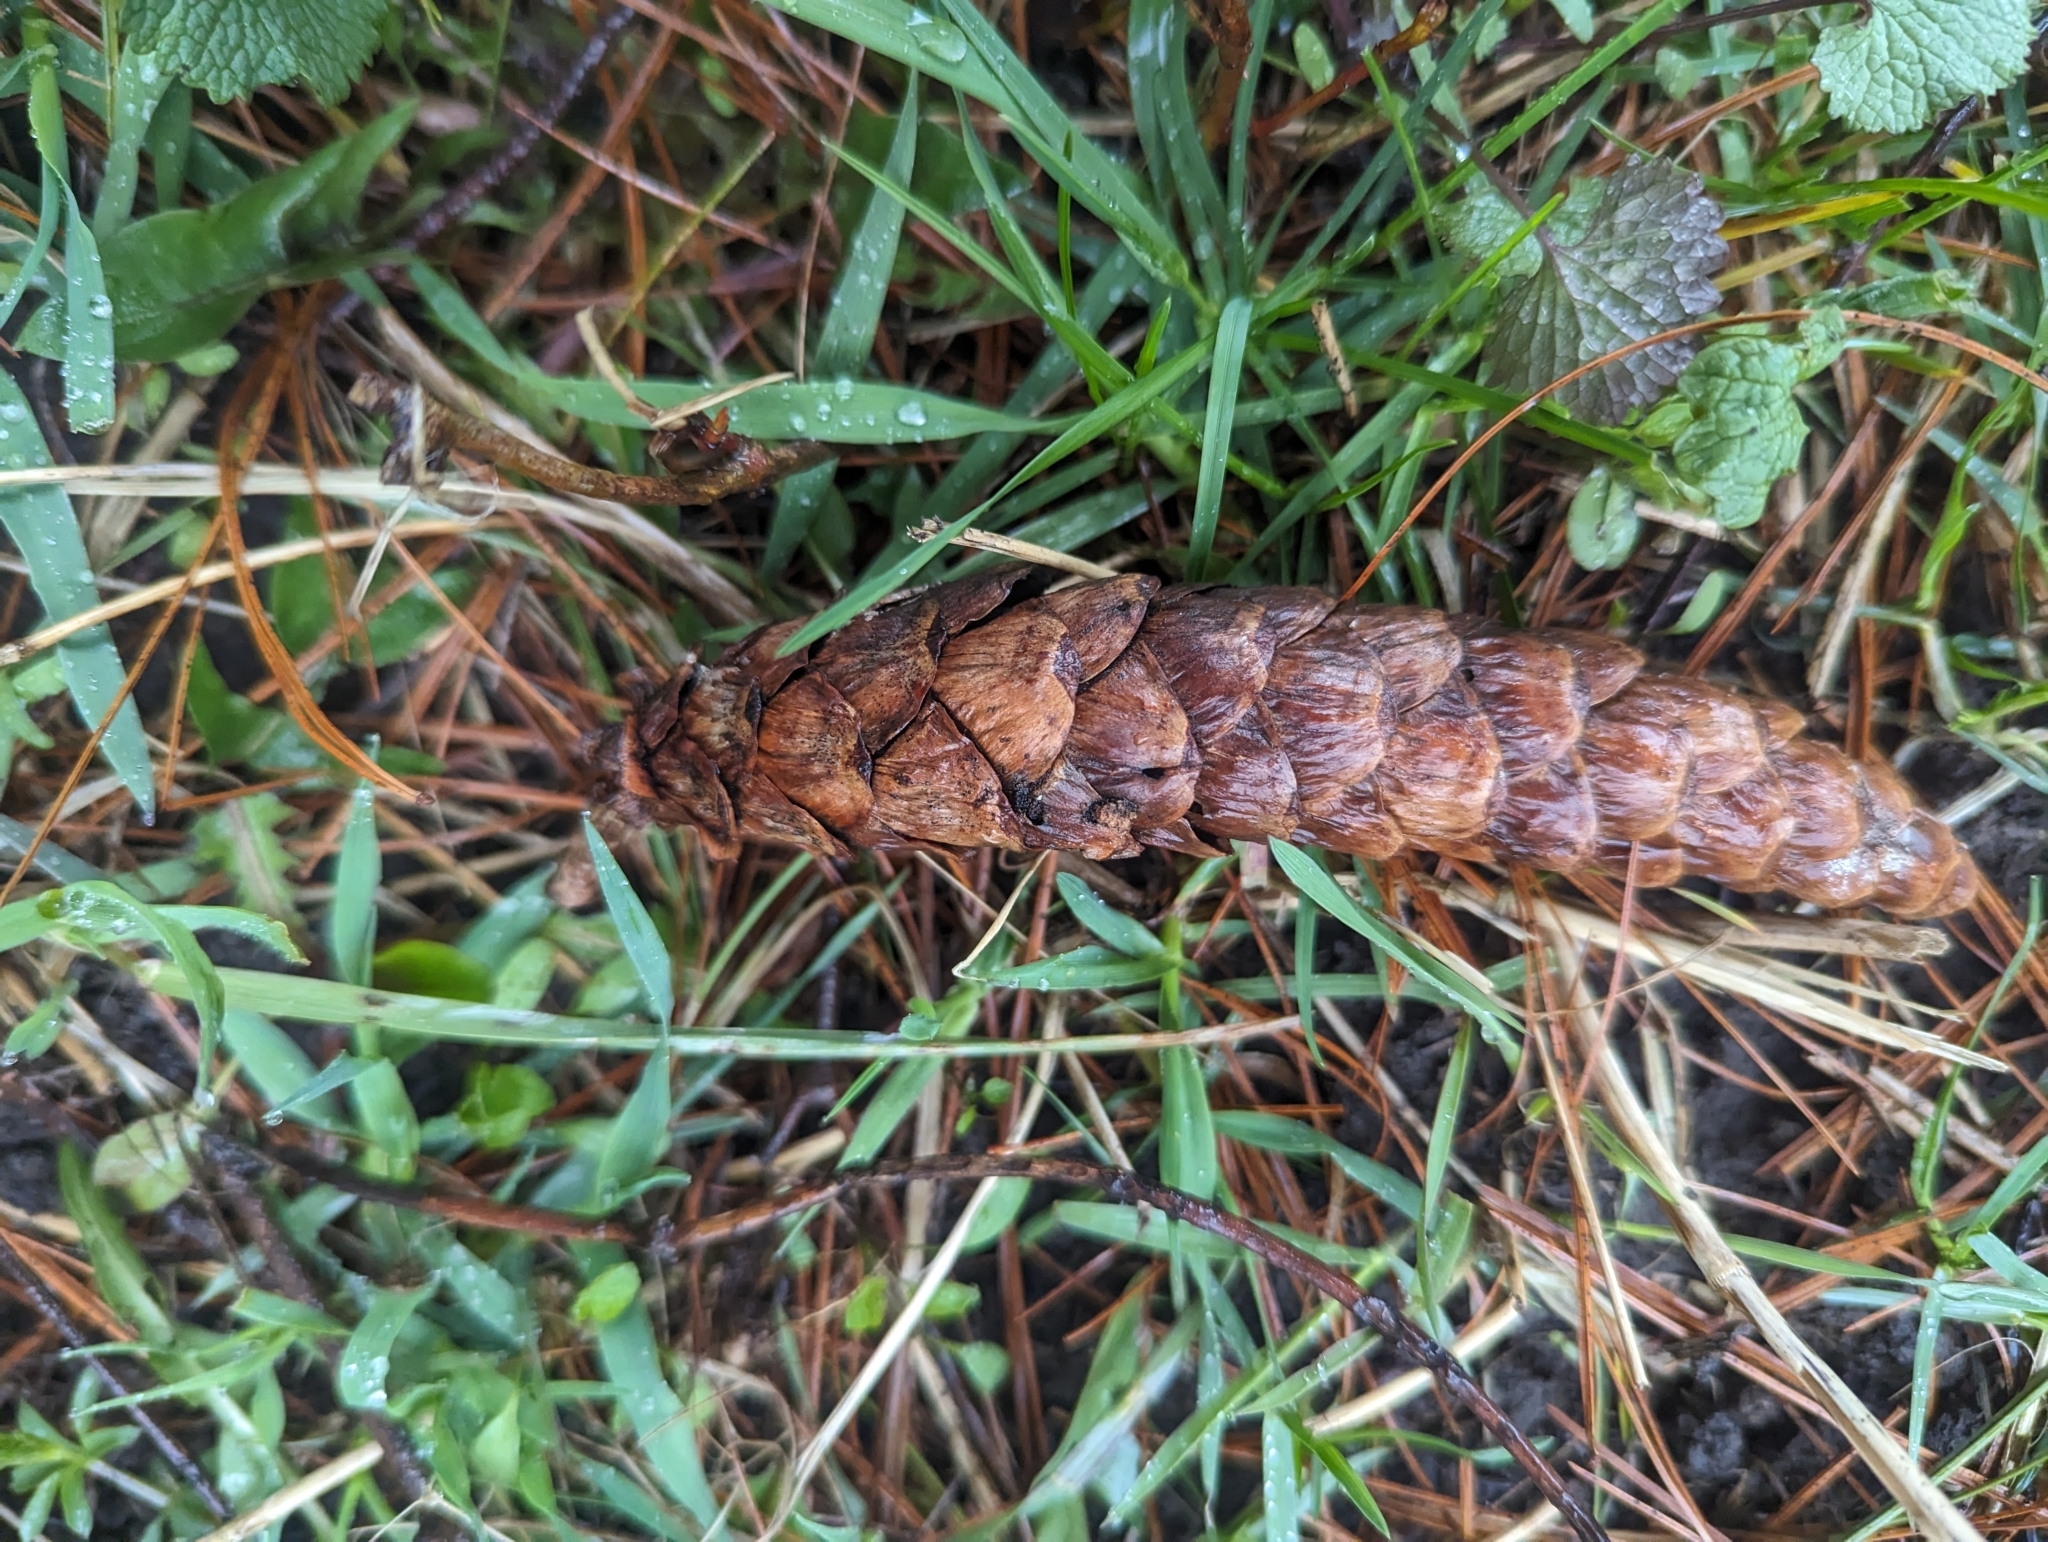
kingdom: Plantae
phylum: Tracheophyta
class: Pinopsida
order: Pinales
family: Pinaceae
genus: Pinus
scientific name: Pinus strobus
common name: Weymouth pine
